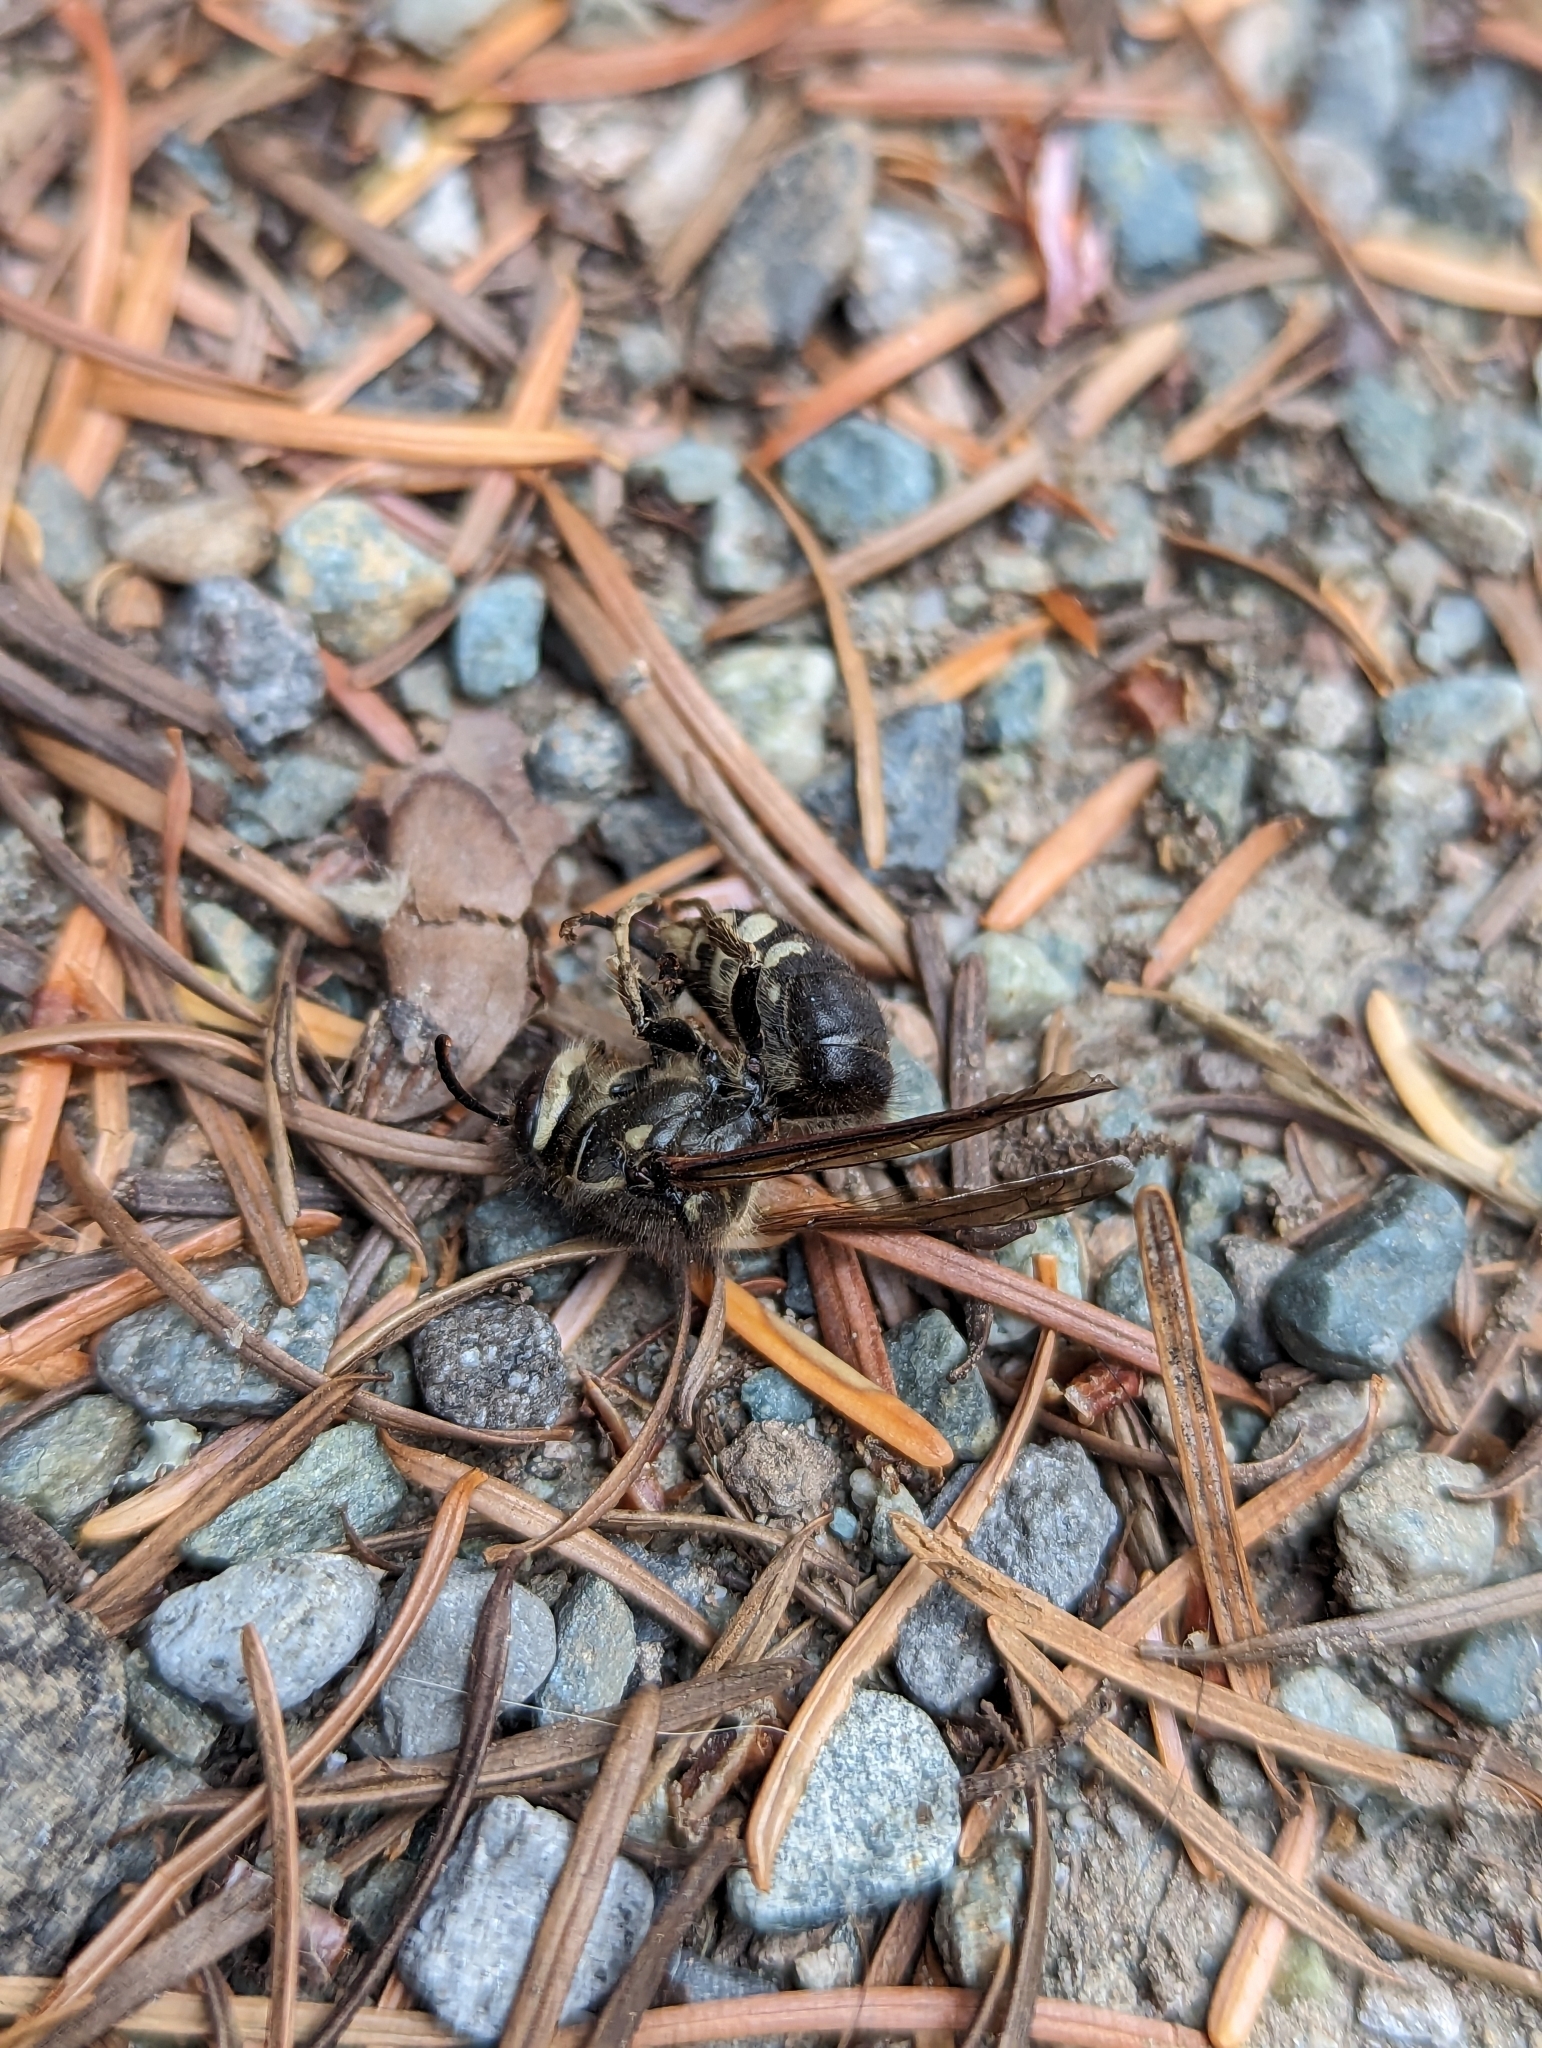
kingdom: Animalia
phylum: Arthropoda
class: Insecta
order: Hymenoptera
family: Vespidae
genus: Dolichovespula
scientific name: Dolichovespula maculata
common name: Bald-faced hornet
